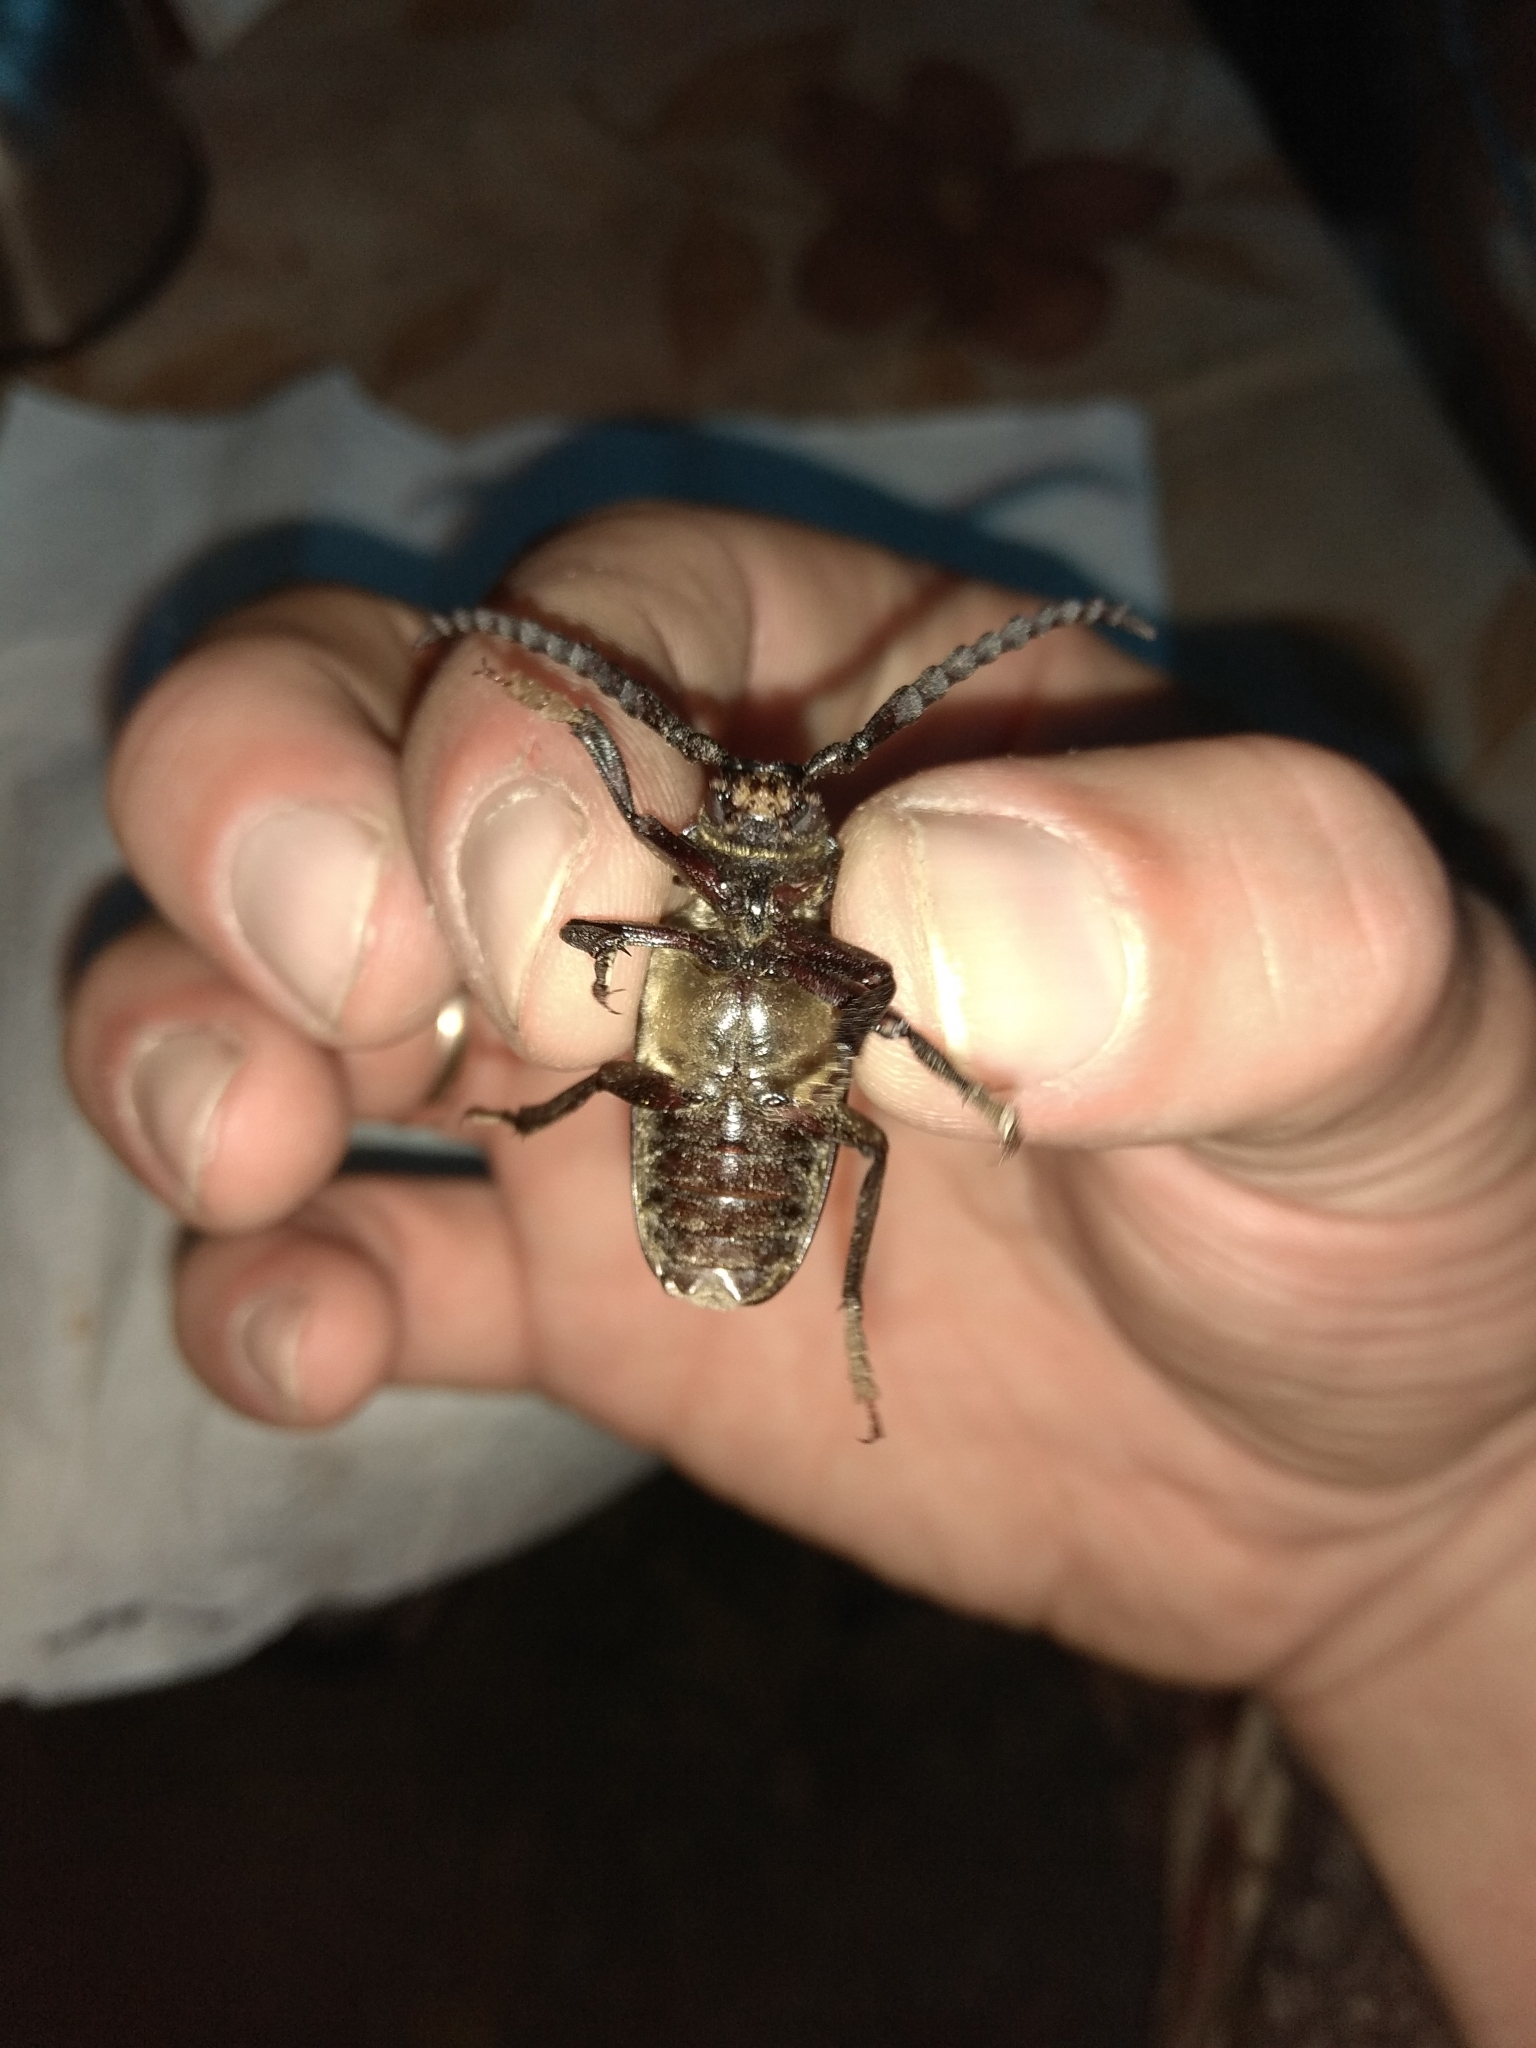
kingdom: Animalia
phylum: Arthropoda
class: Insecta
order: Coleoptera
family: Cerambycidae
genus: Prionus
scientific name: Prionus coriarius
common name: Tanner beetle
